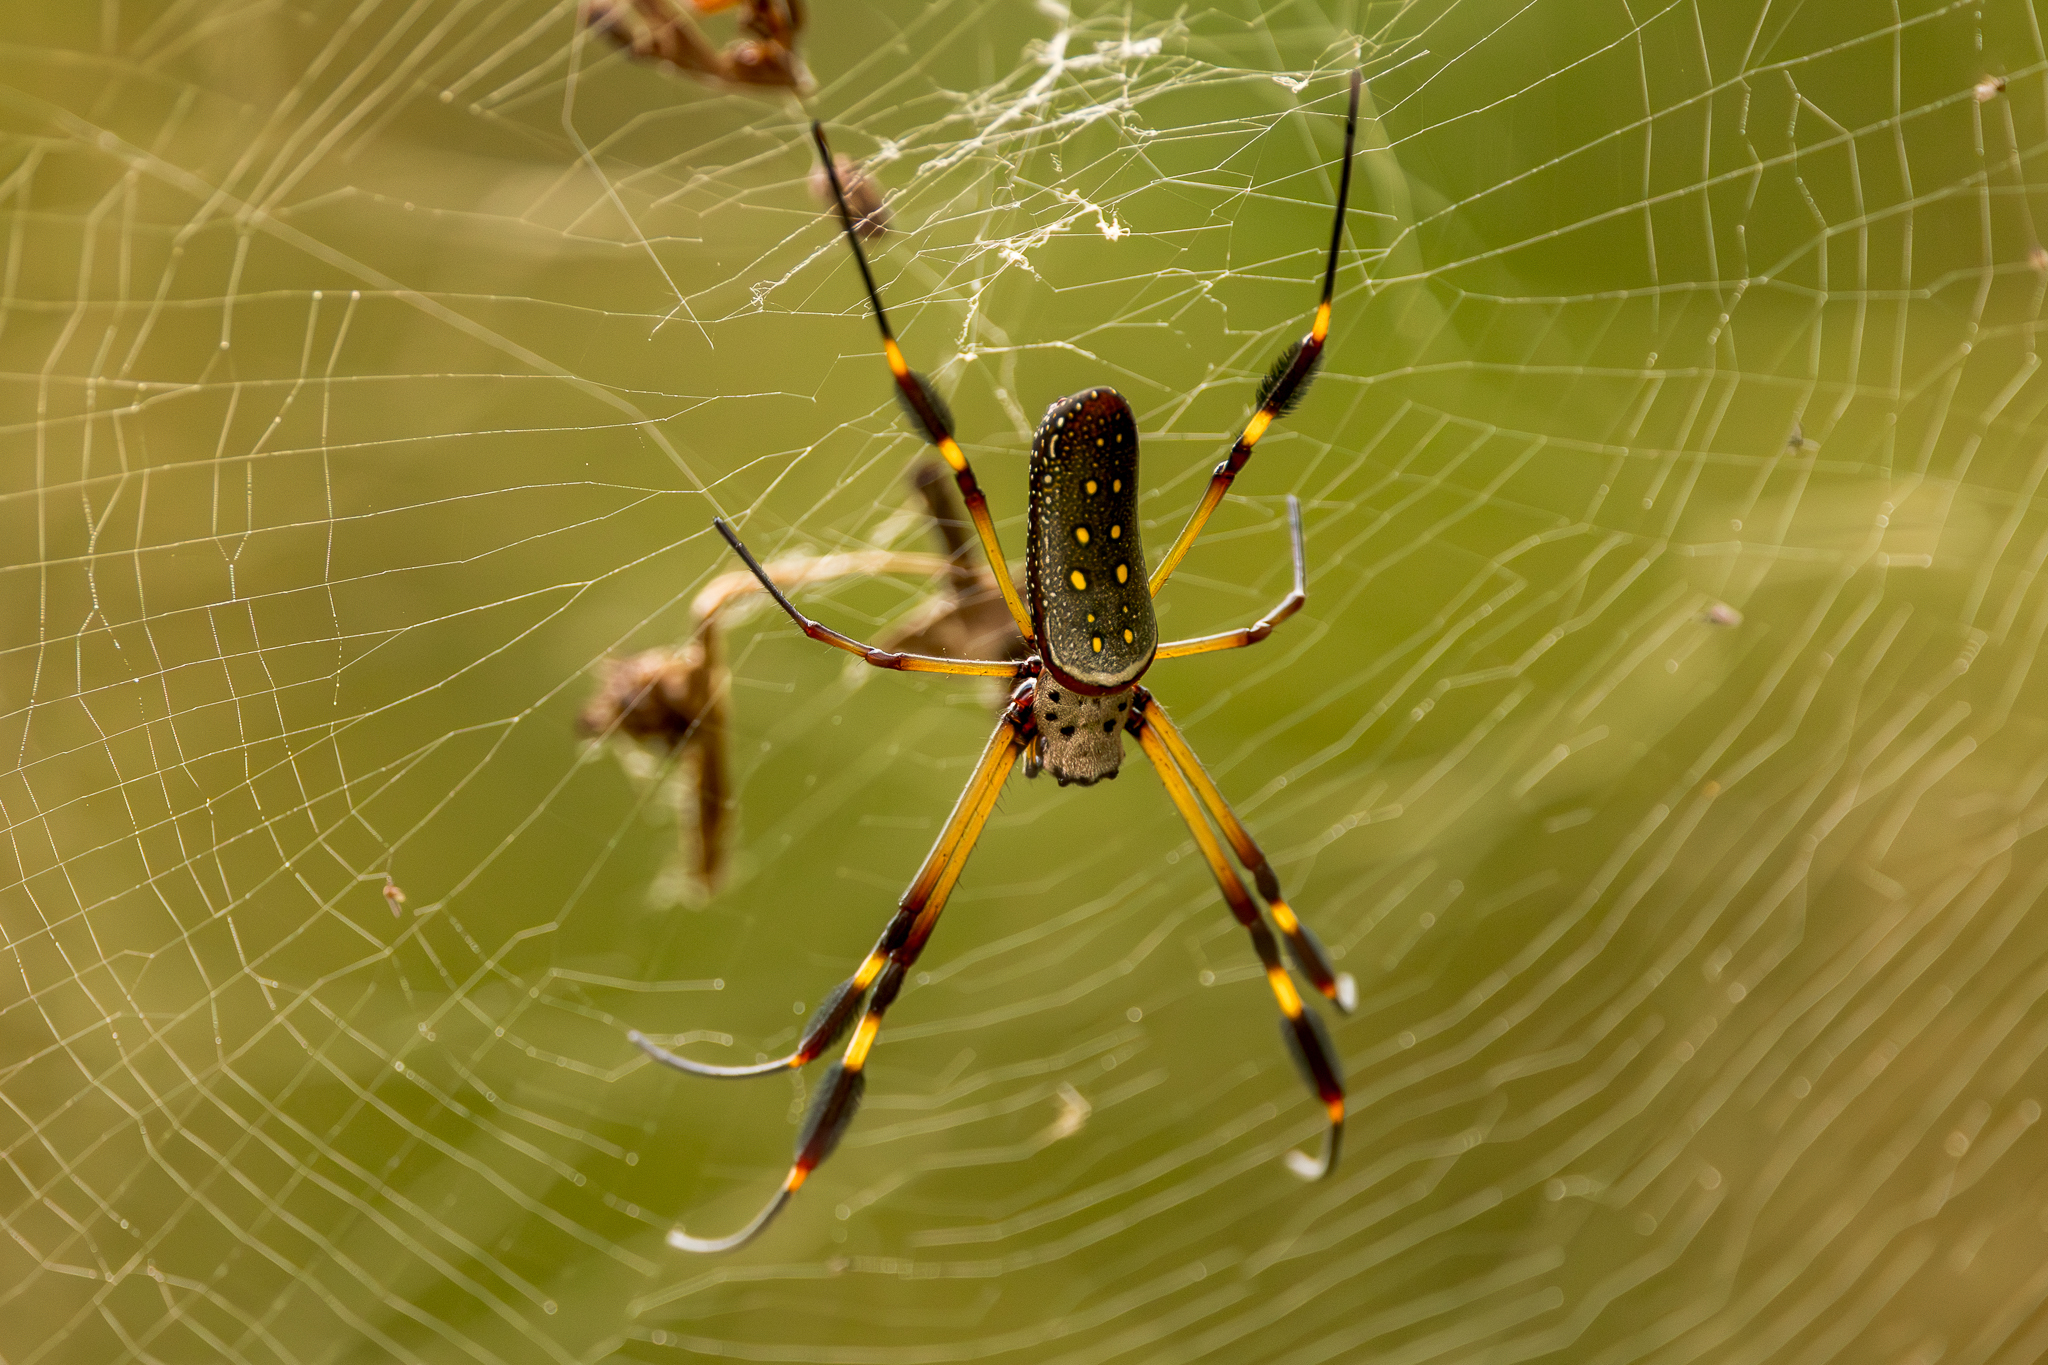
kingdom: Animalia
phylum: Arthropoda
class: Arachnida
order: Araneae
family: Araneidae
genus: Trichonephila
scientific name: Trichonephila clavipes
